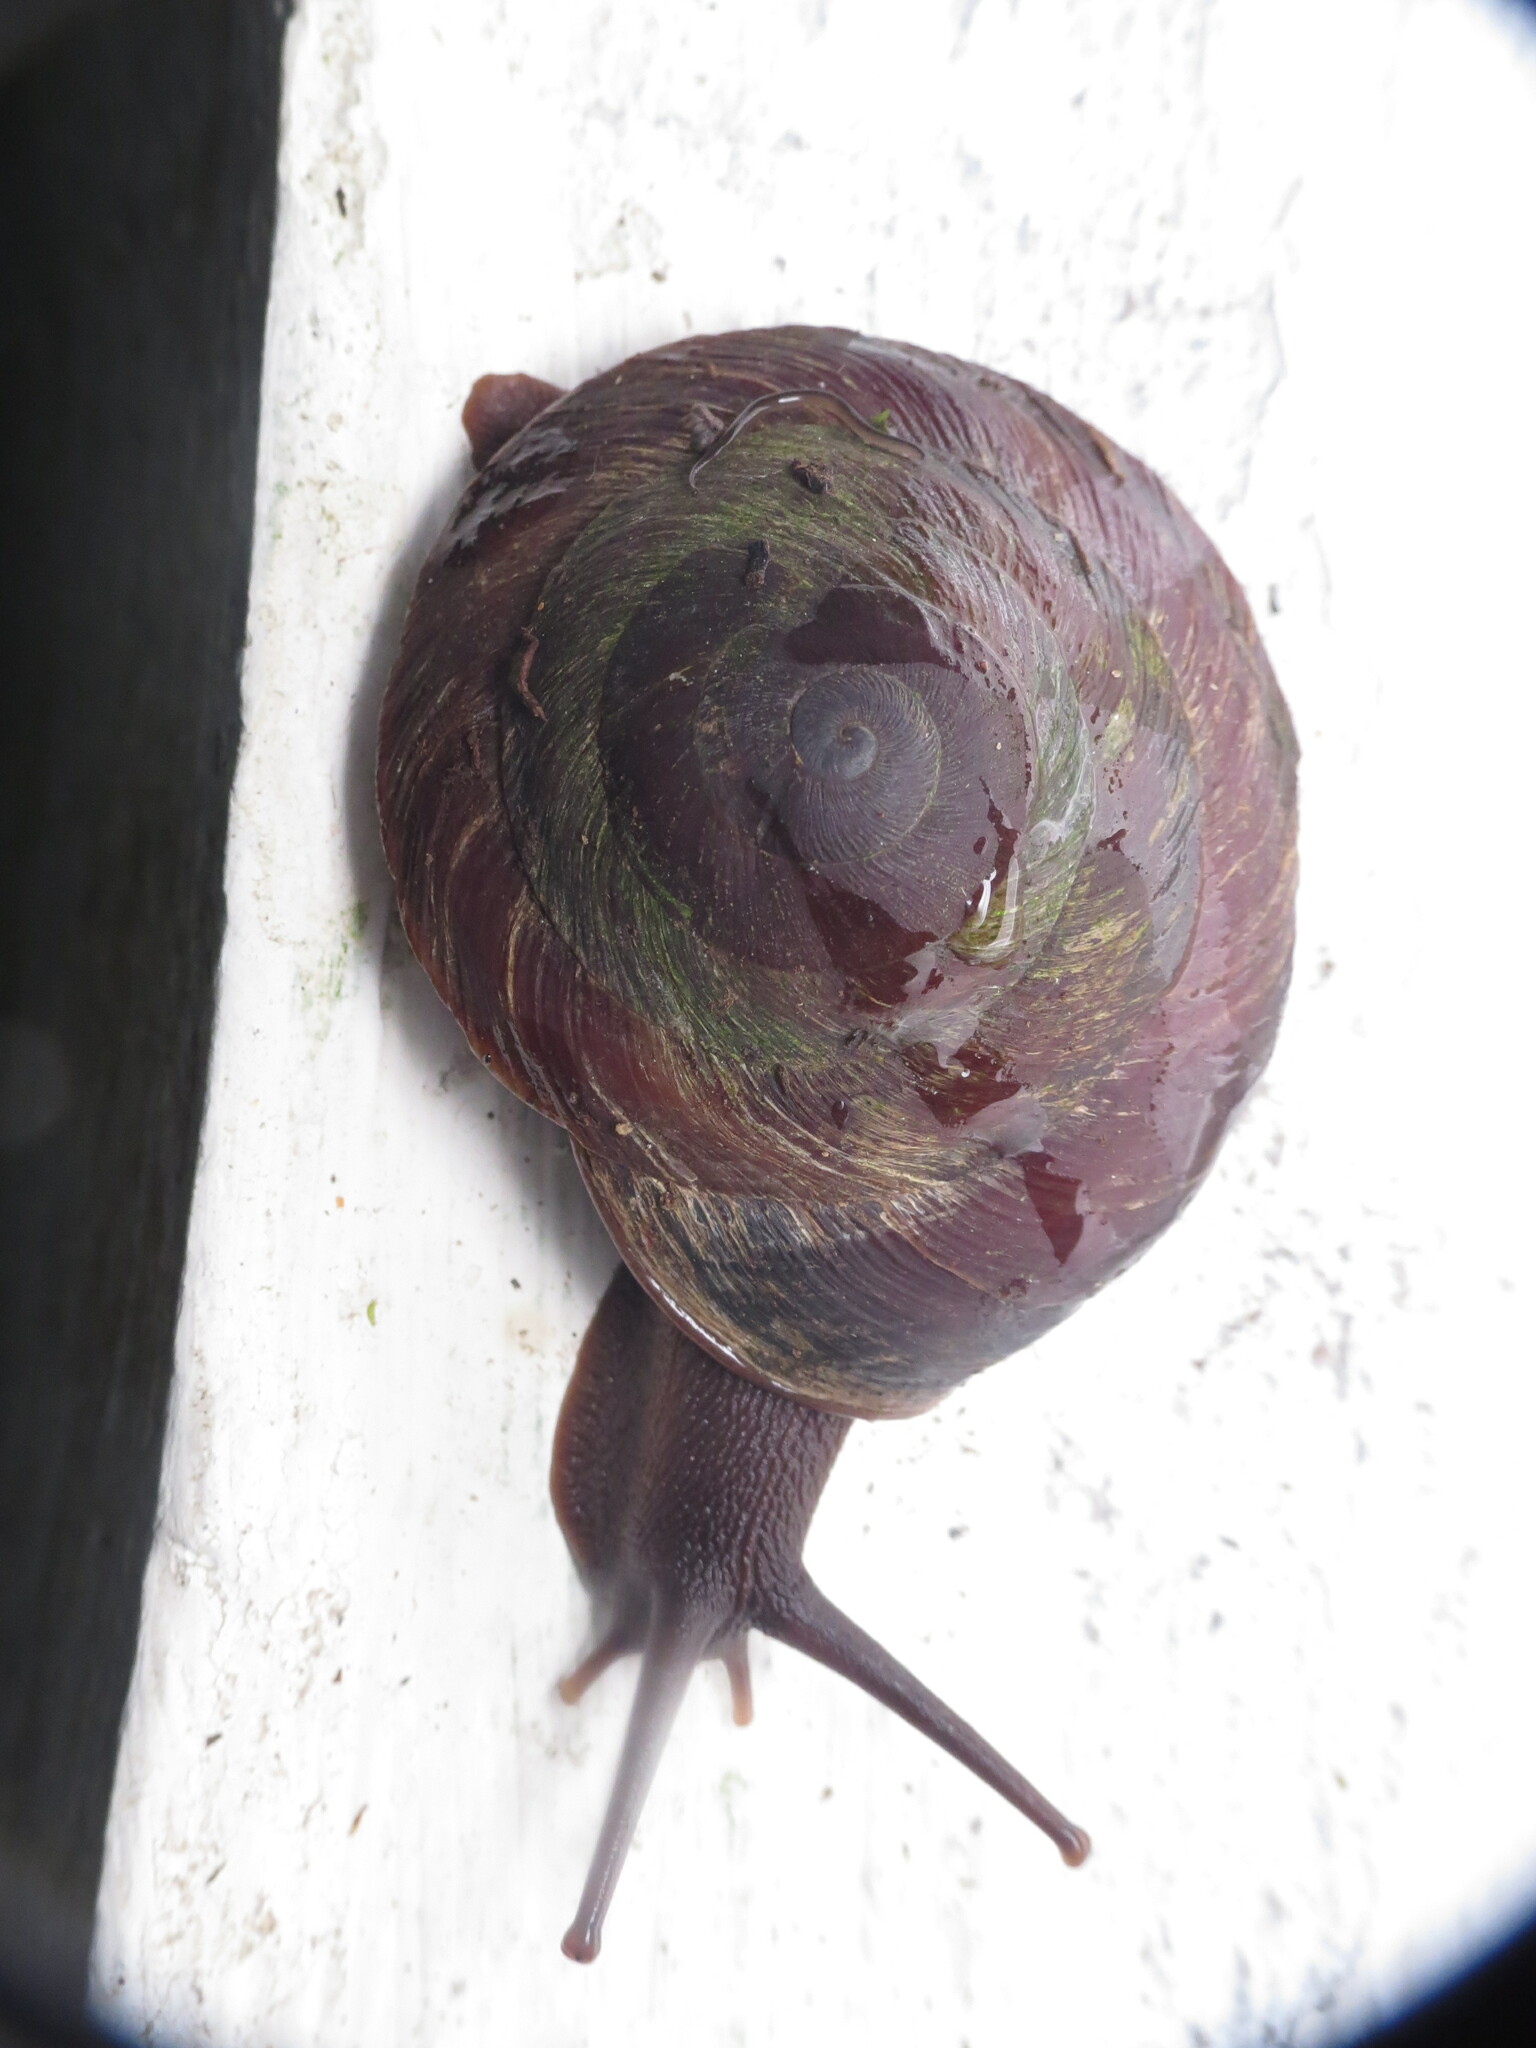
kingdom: Animalia
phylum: Mollusca
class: Gastropoda
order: Stylommatophora
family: Solaropsidae
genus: Caracolus
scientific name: Caracolus carocolla
